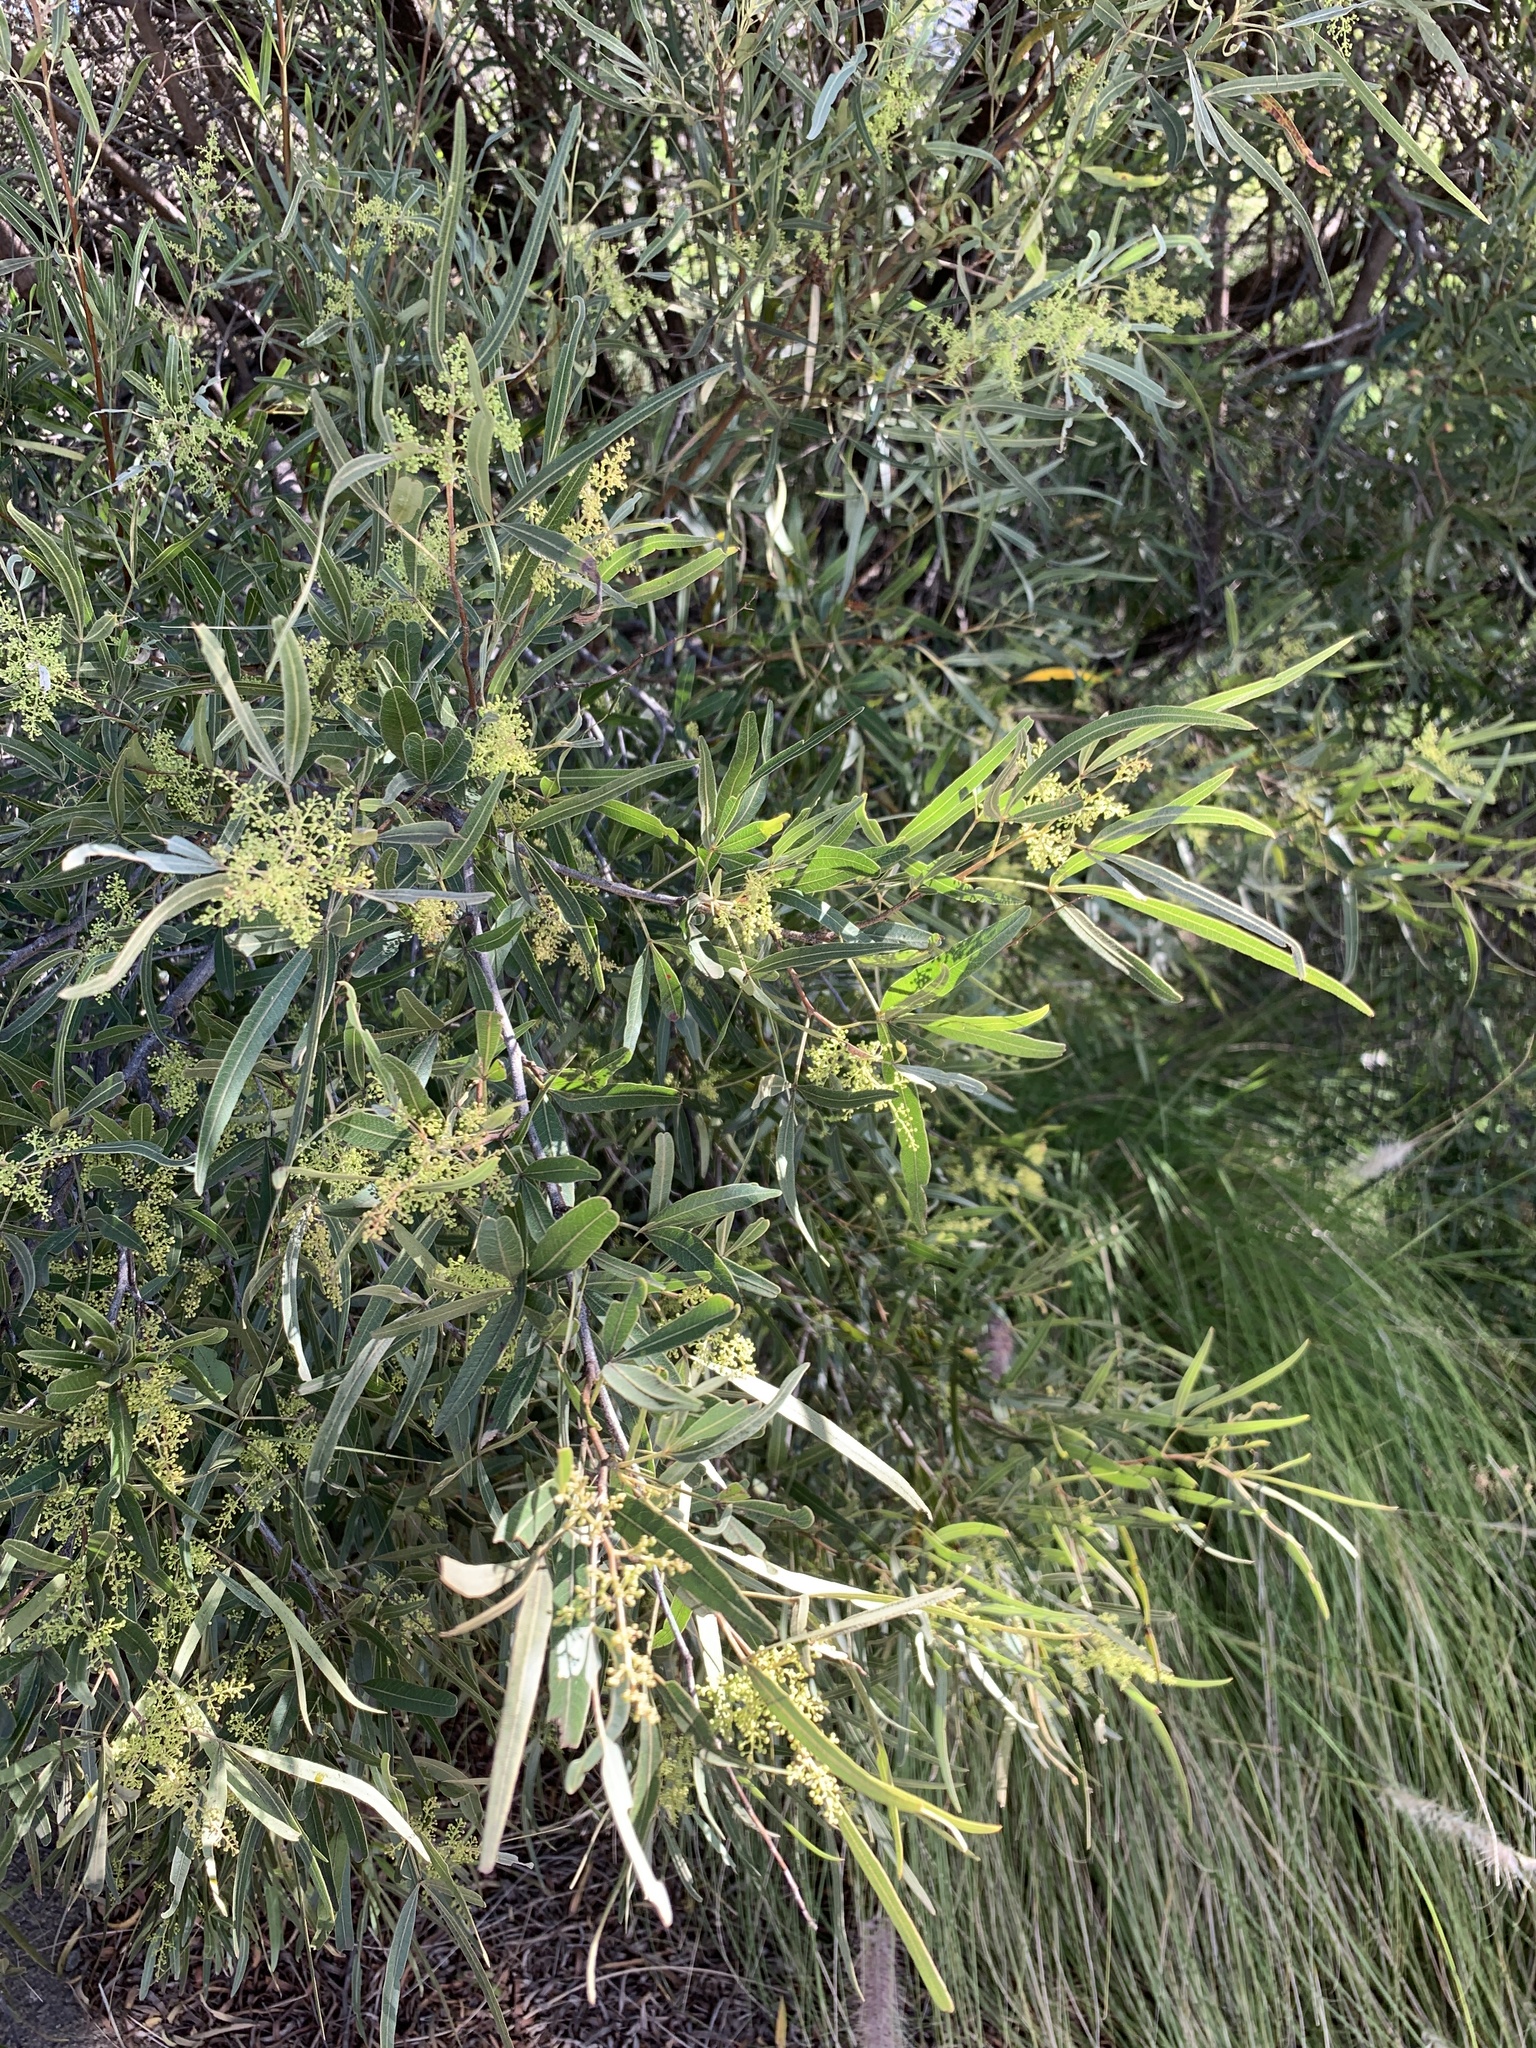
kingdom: Plantae
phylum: Tracheophyta
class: Magnoliopsida
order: Sapindales
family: Anacardiaceae
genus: Searsia
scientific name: Searsia lancea
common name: Cashew
